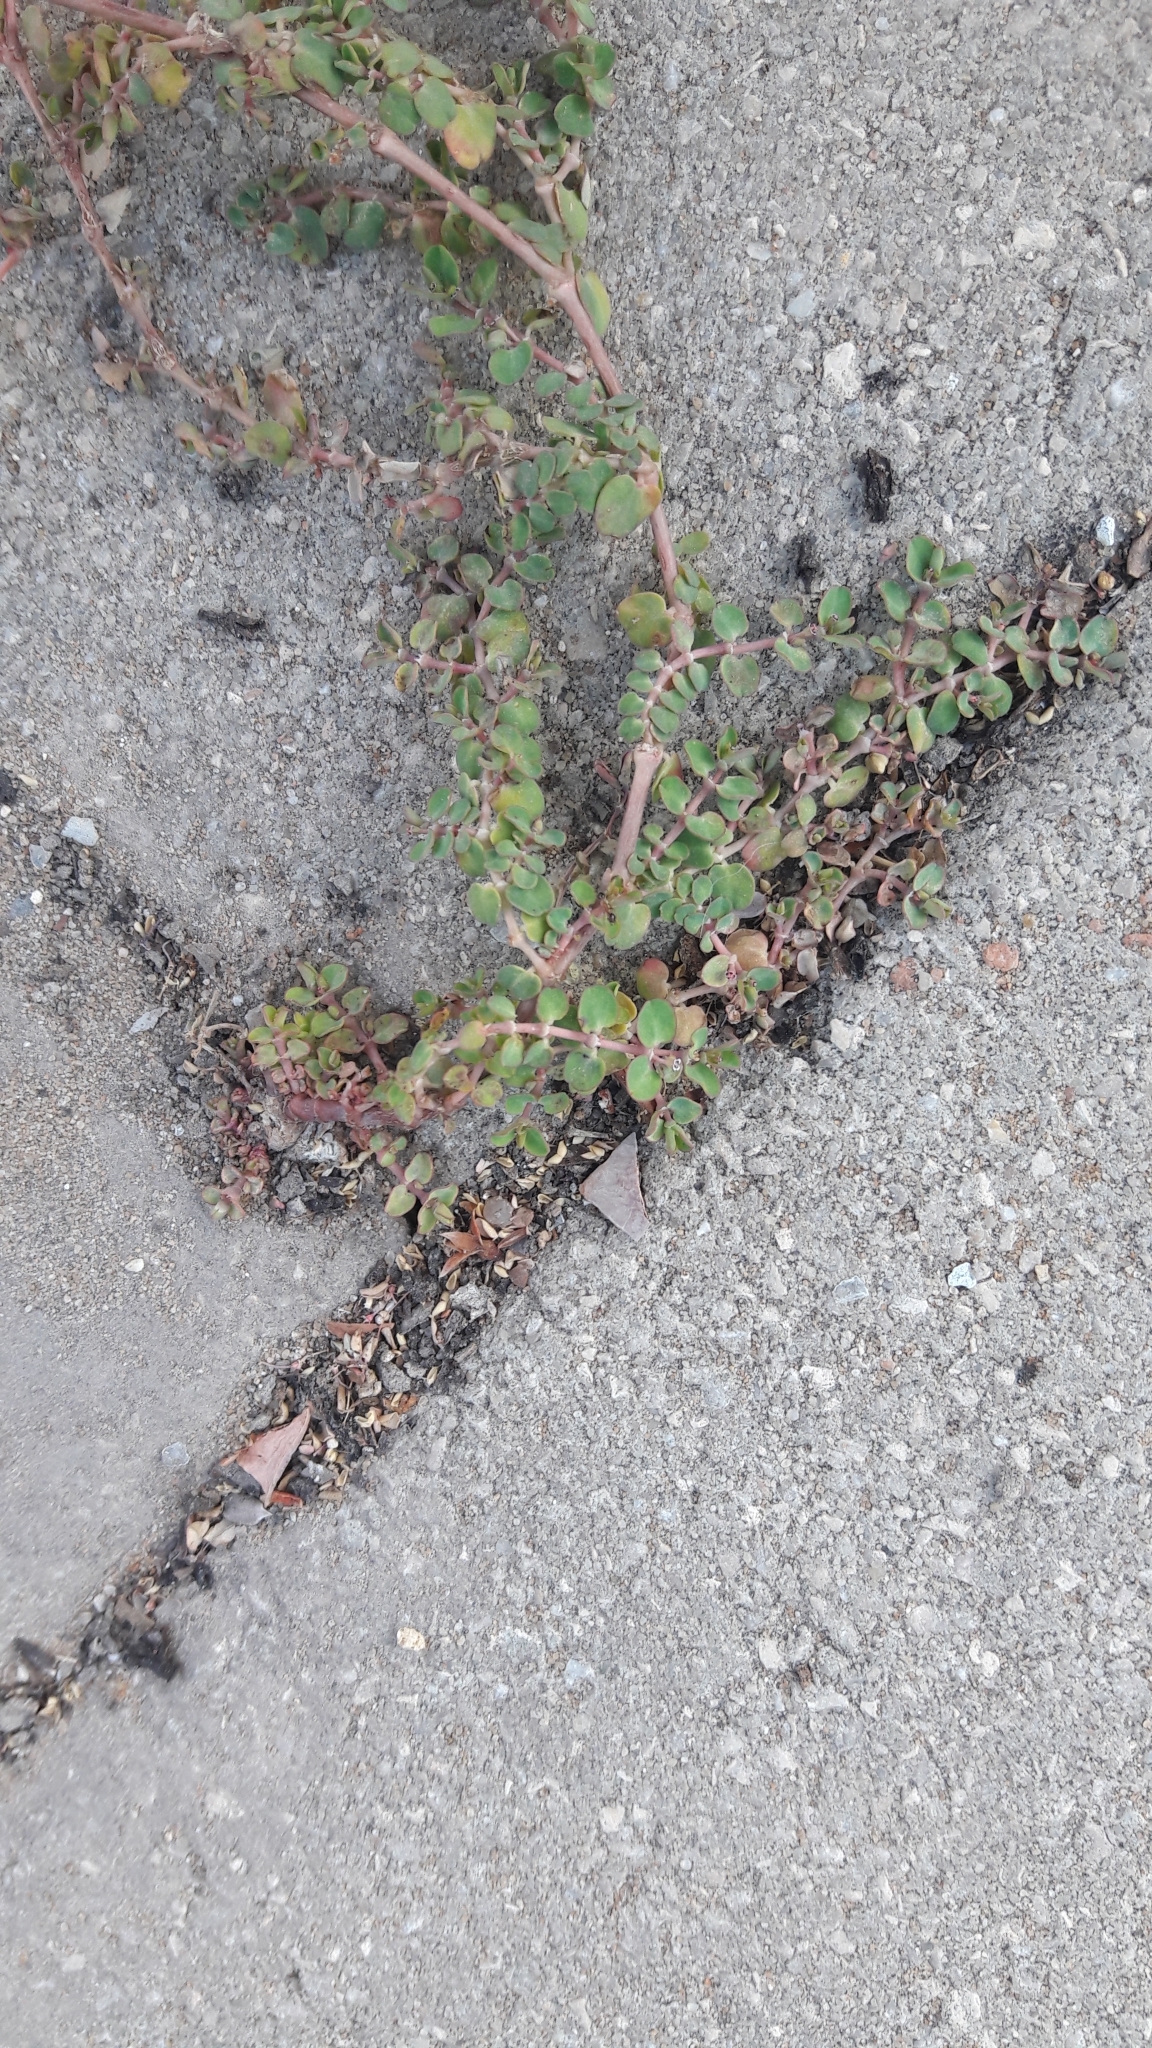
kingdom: Plantae
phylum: Tracheophyta
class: Magnoliopsida
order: Malpighiales
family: Euphorbiaceae
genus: Euphorbia
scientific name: Euphorbia serpens
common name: Matted sandmat
